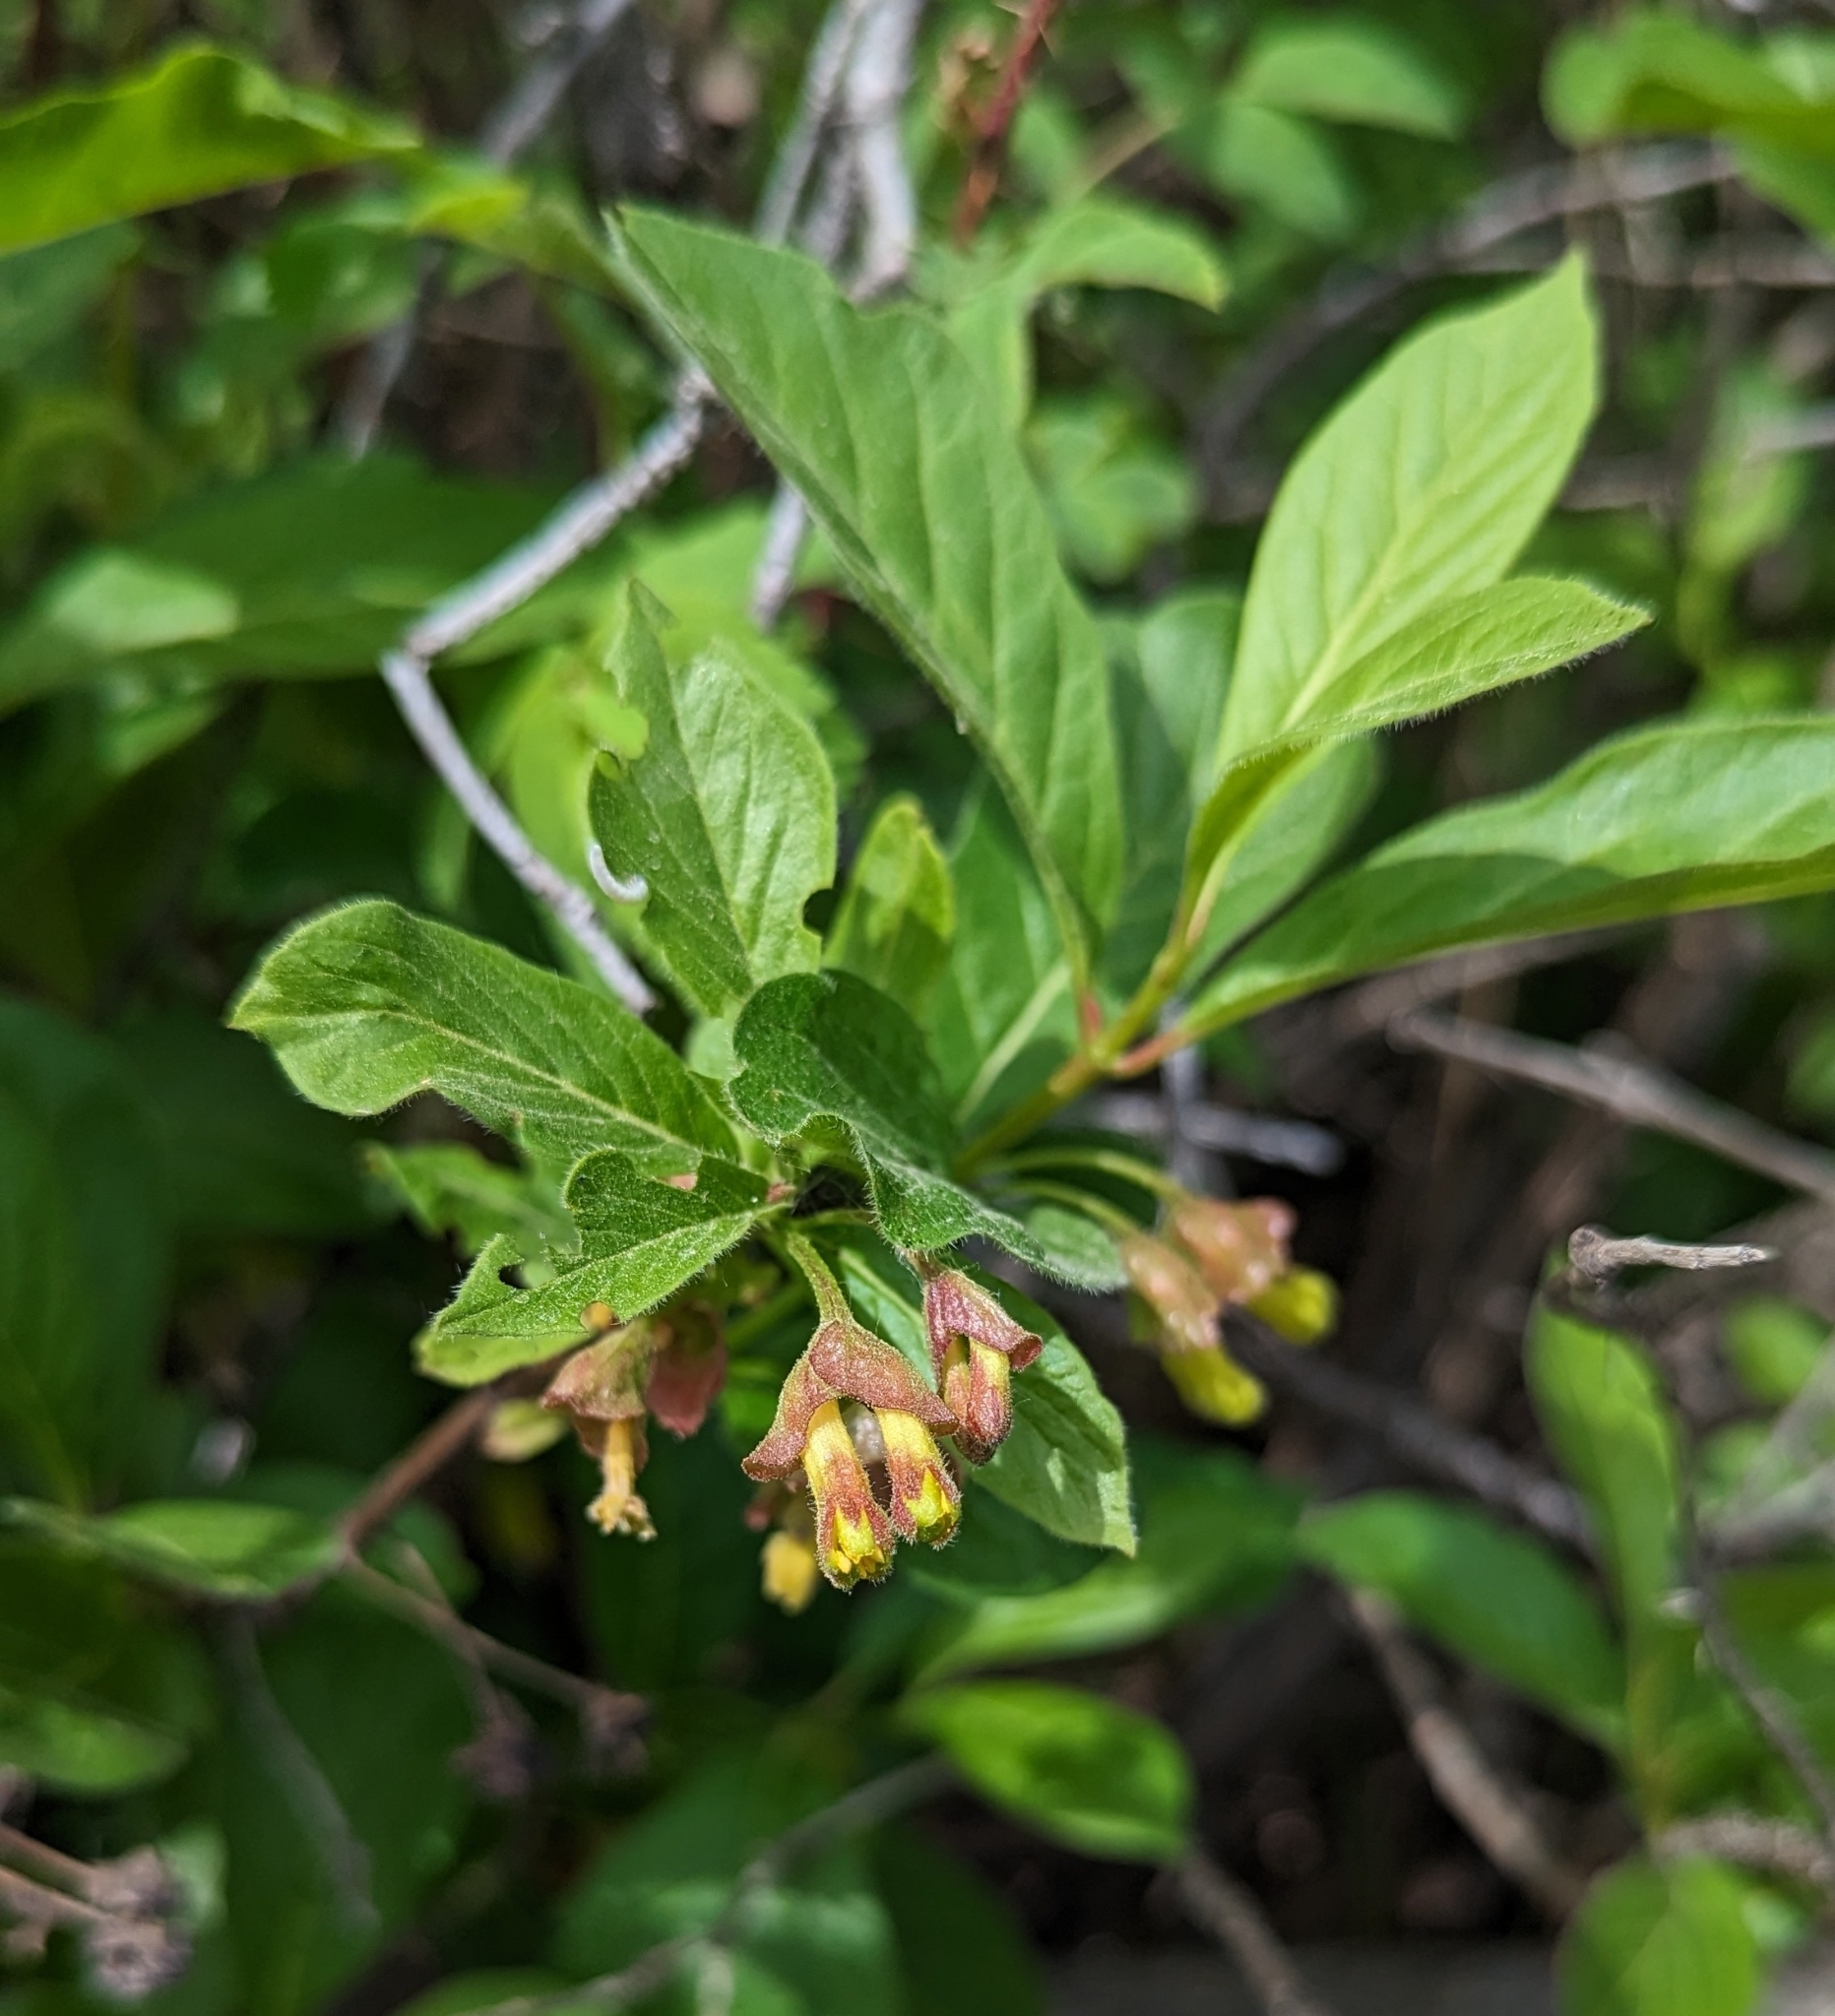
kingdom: Plantae
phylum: Tracheophyta
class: Magnoliopsida
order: Dipsacales
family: Caprifoliaceae
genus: Lonicera
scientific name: Lonicera involucrata
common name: Californian honeysuckle
